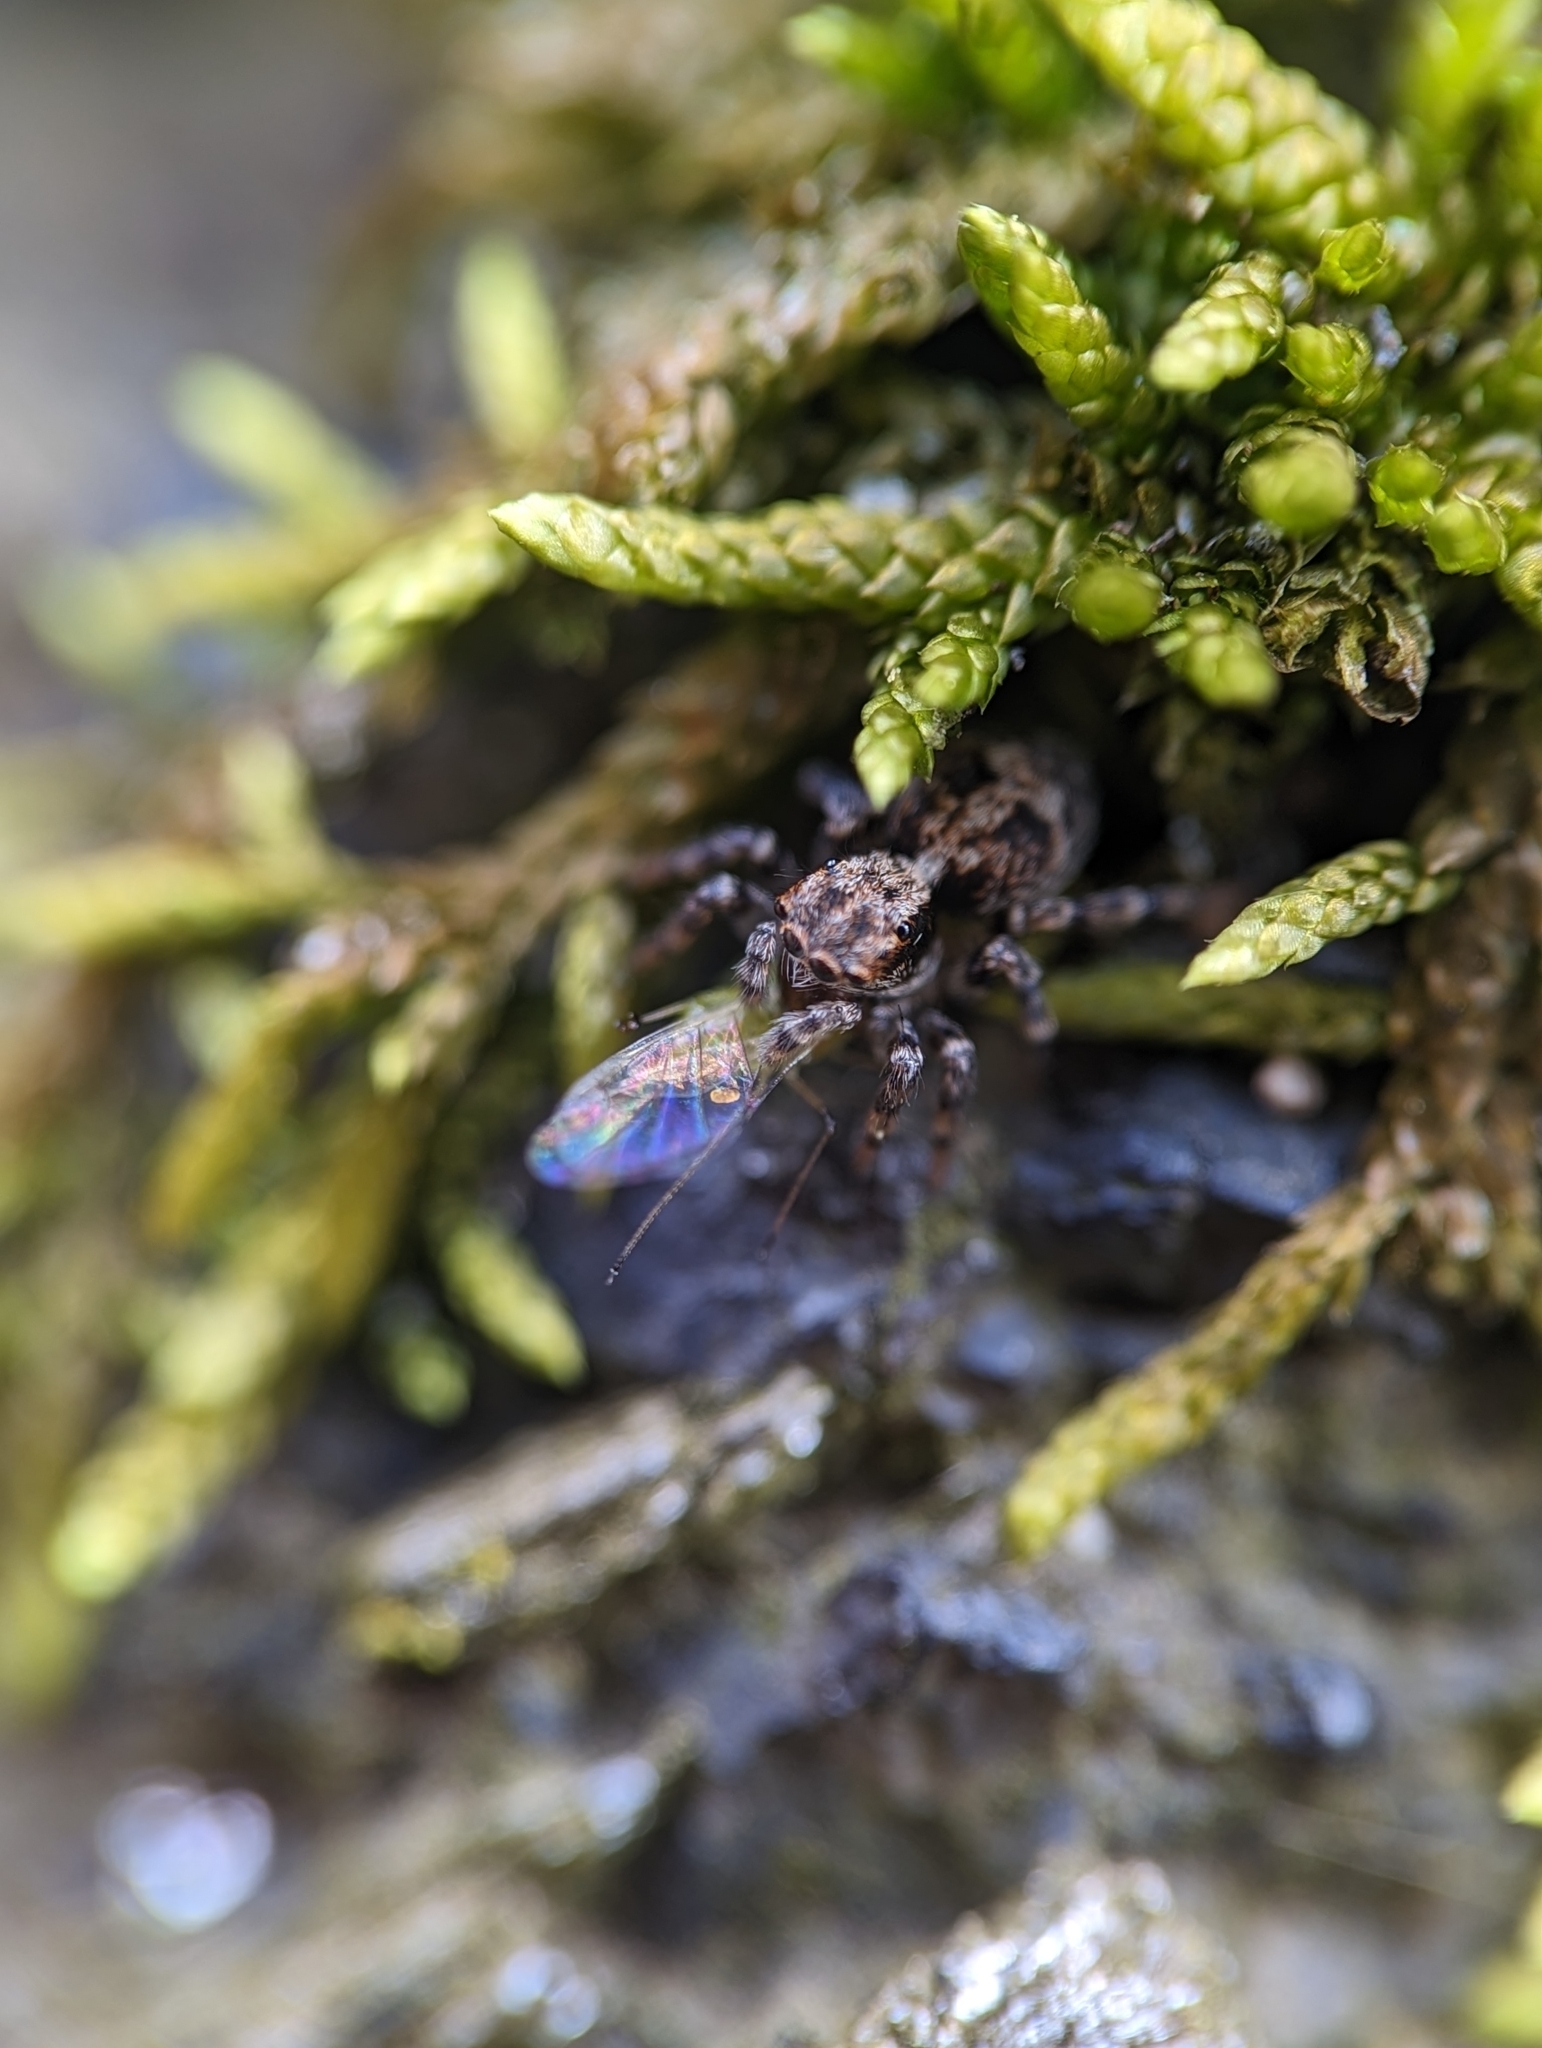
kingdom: Animalia
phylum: Arthropoda
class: Arachnida
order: Araneae
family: Salticidae
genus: Naphrys
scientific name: Naphrys pulex
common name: Flea jumping spider
